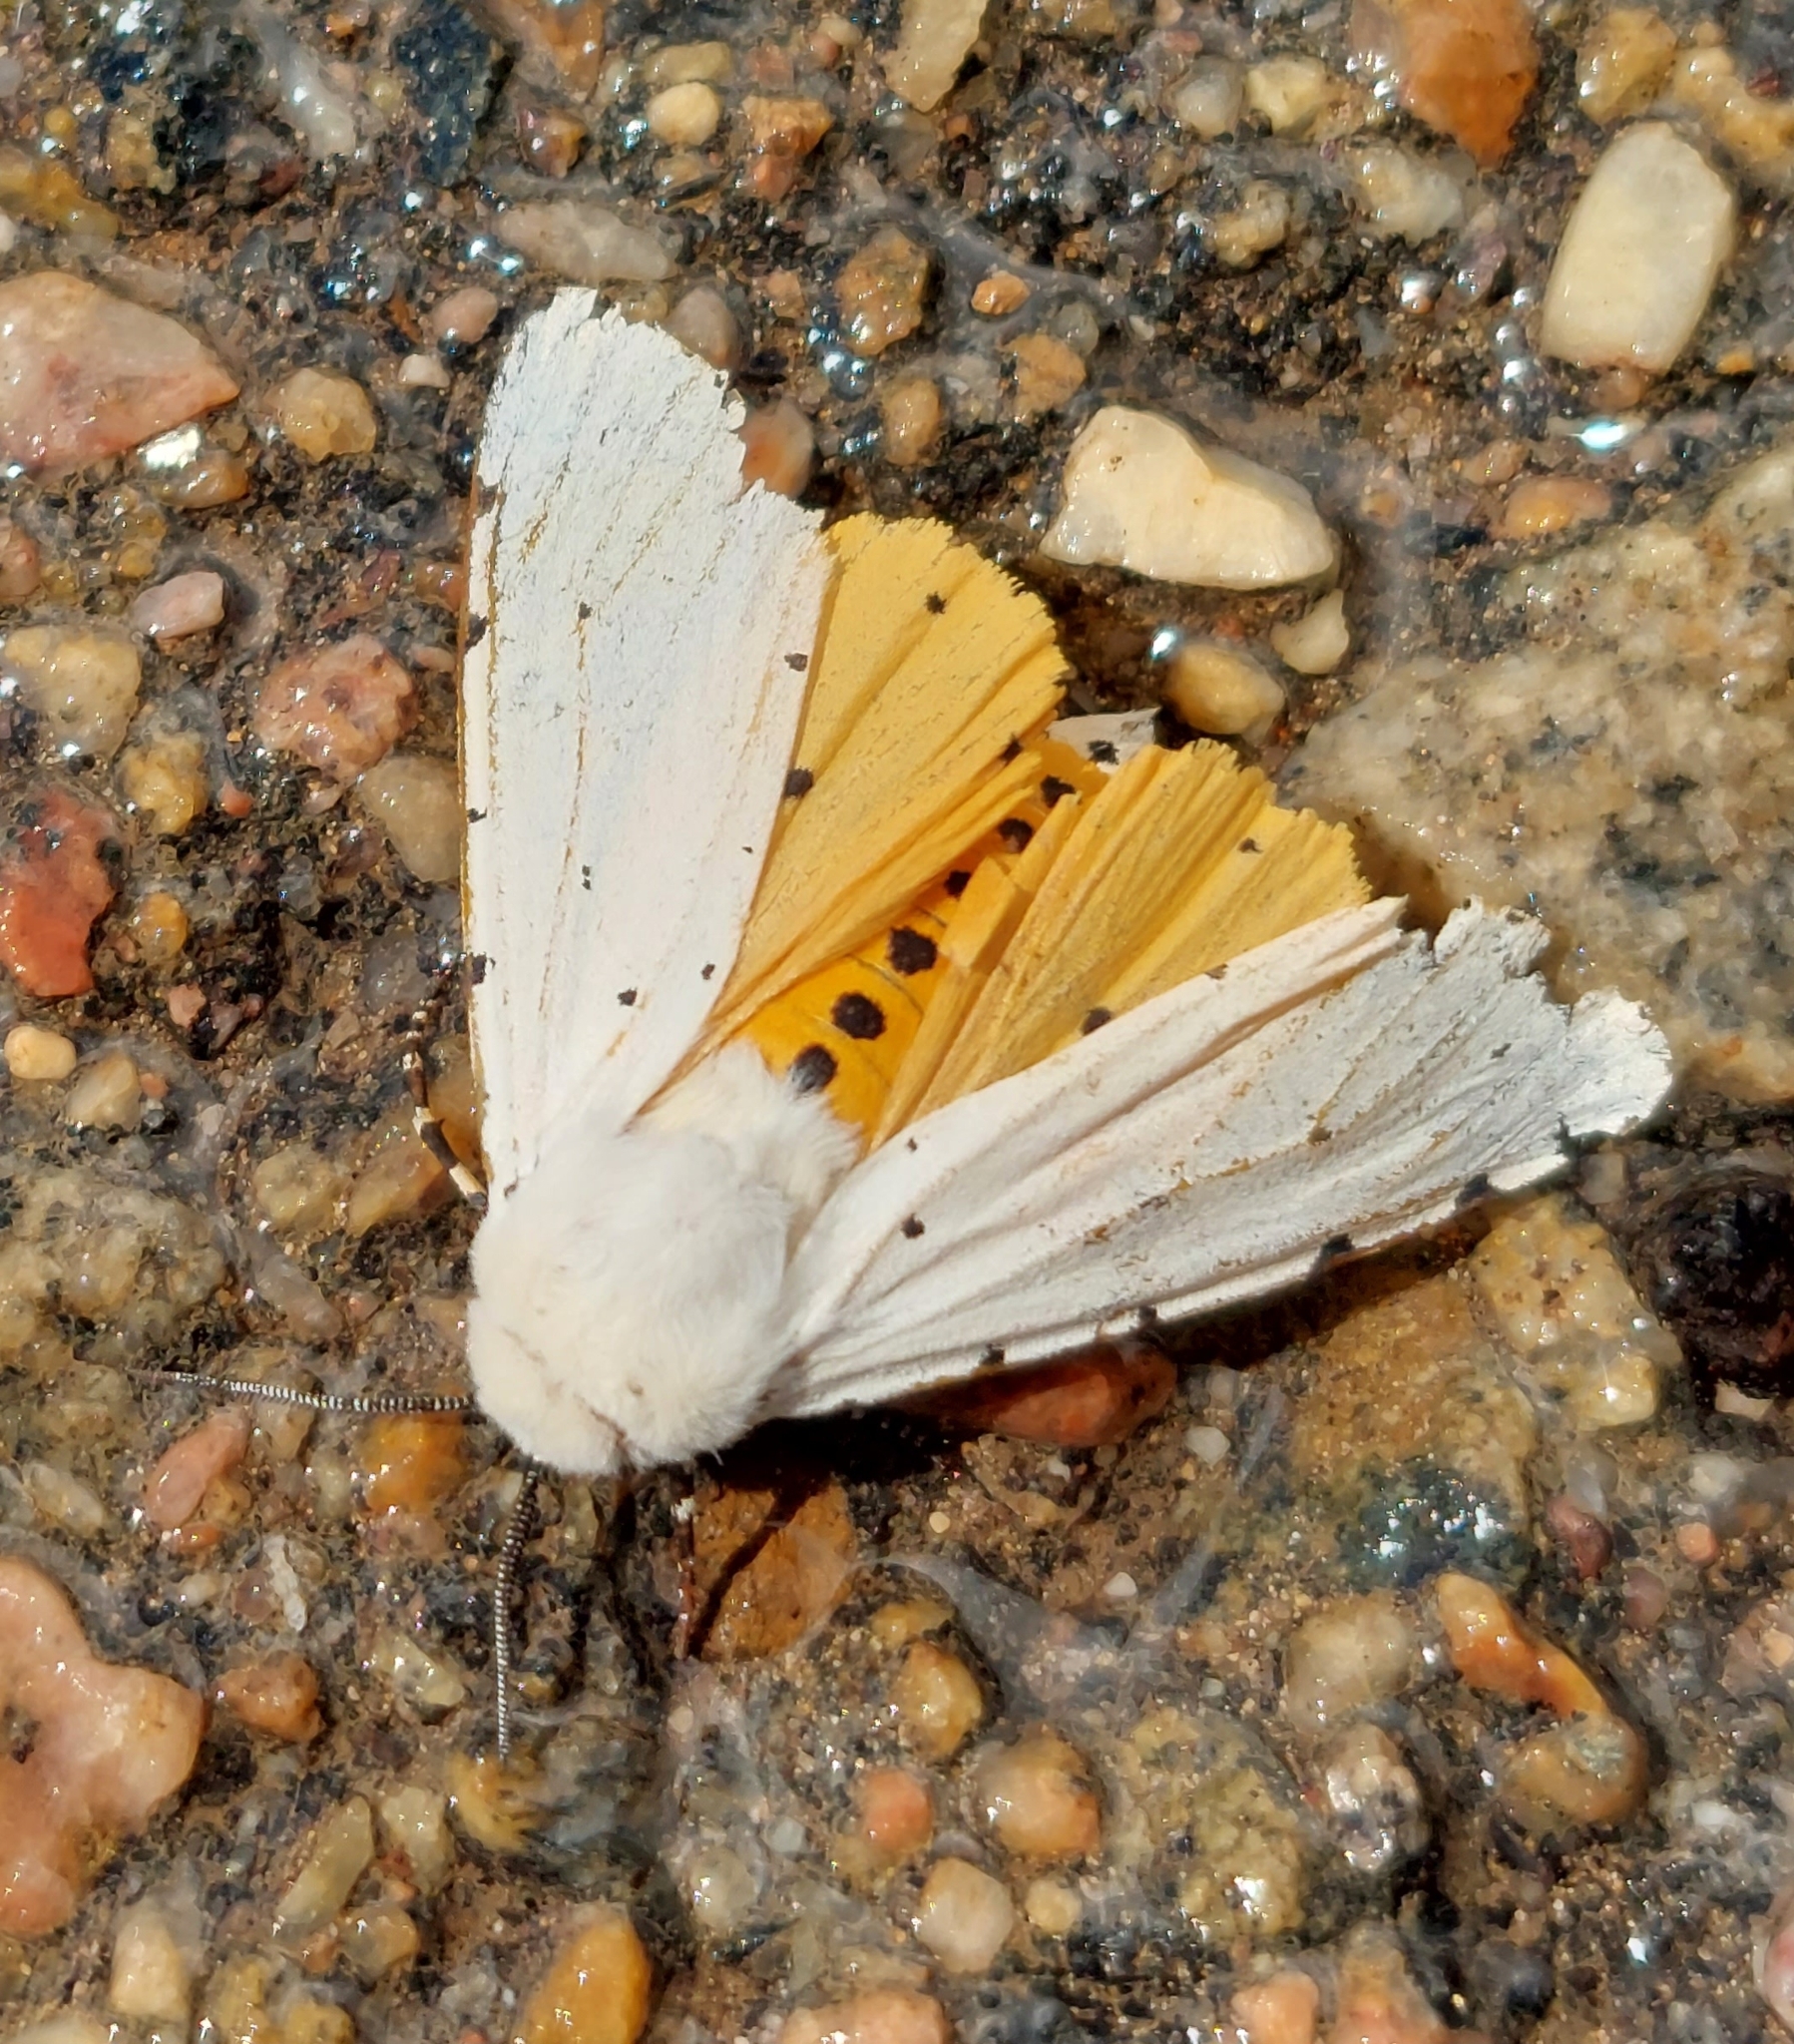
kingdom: Animalia
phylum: Arthropoda
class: Insecta
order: Lepidoptera
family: Erebidae
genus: Estigmene
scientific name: Estigmene acrea
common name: Salt marsh moth
